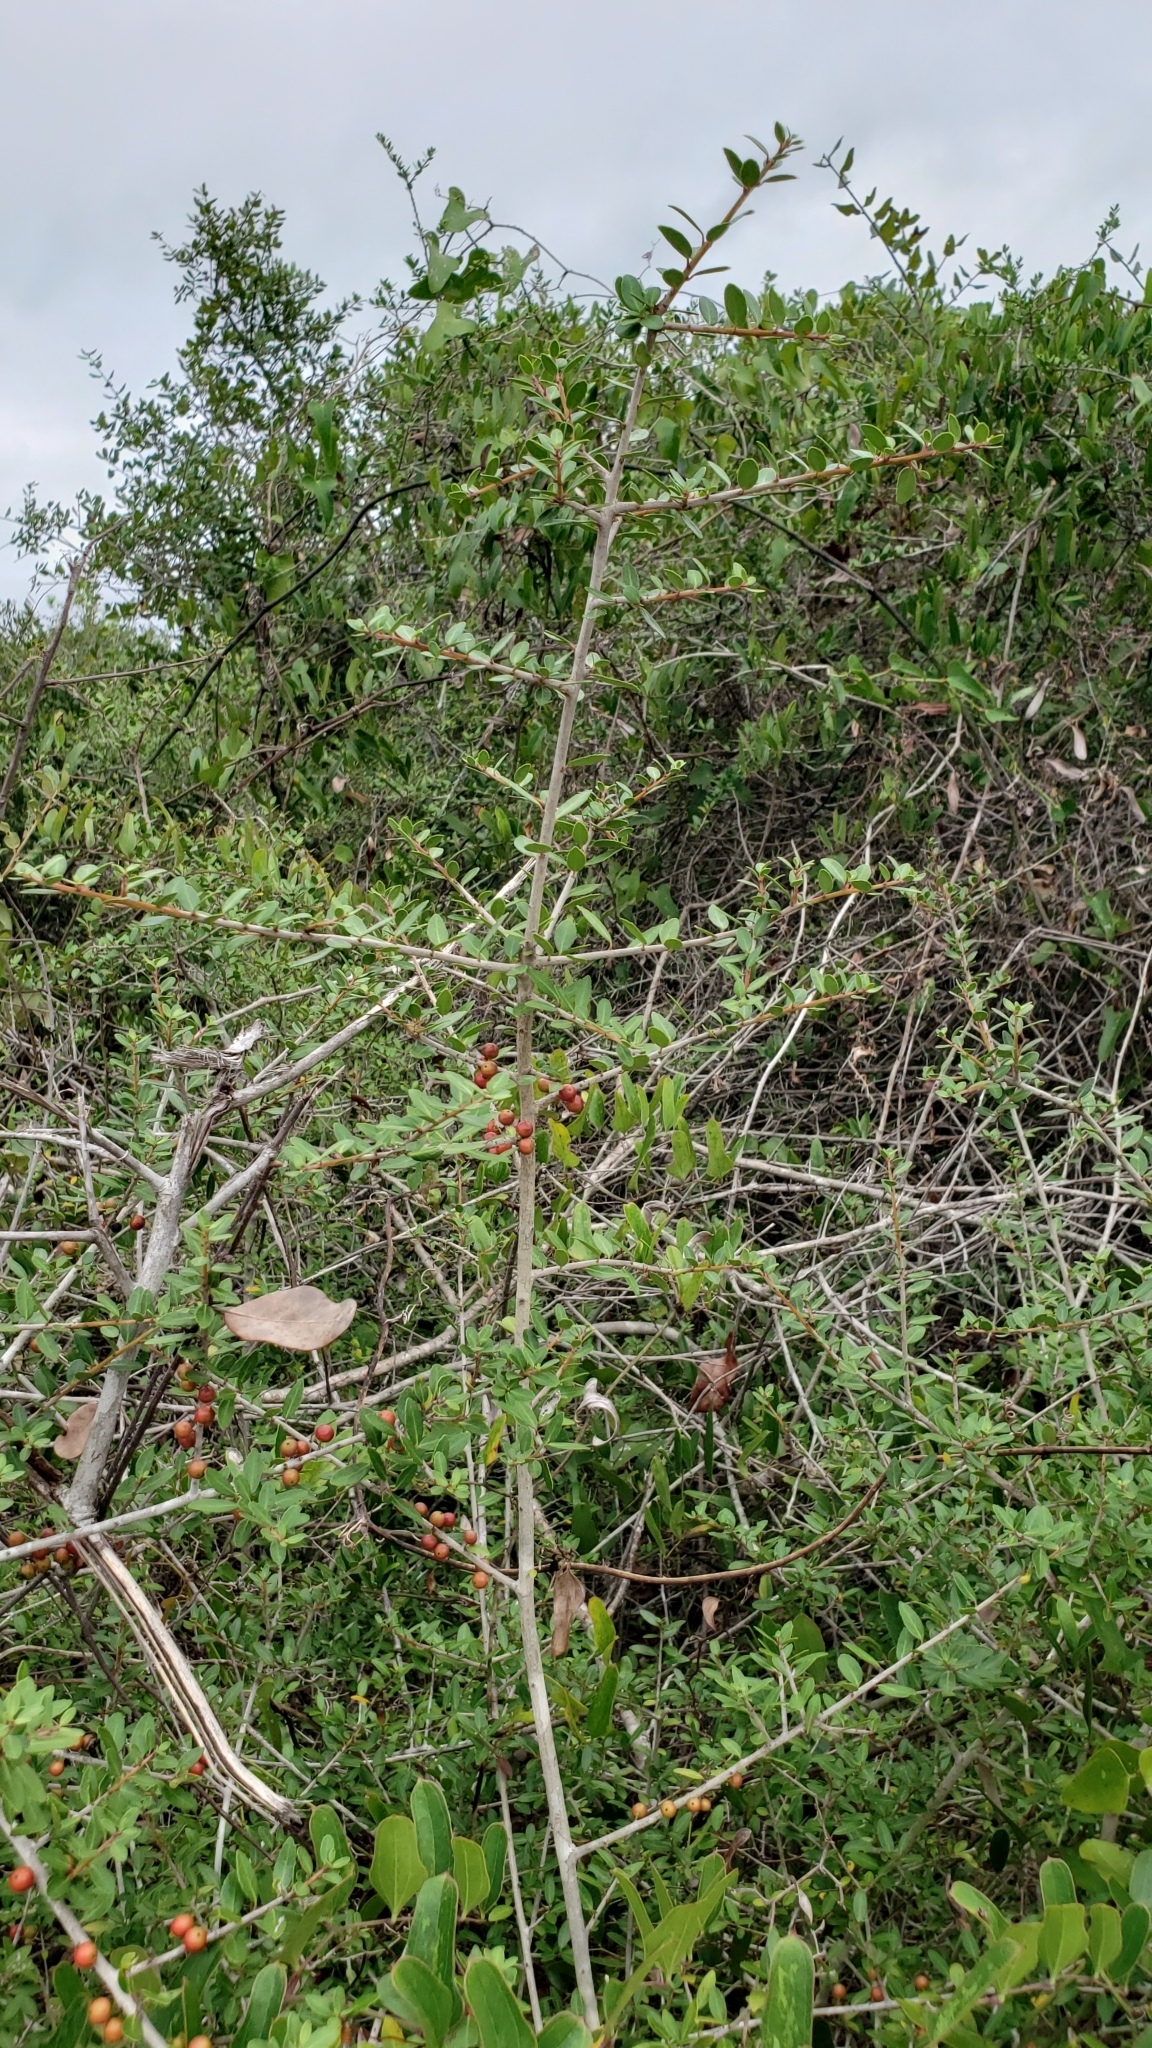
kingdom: Plantae
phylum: Tracheophyta
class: Magnoliopsida
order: Aquifoliales
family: Aquifoliaceae
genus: Ilex
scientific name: Ilex vomitoria
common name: Yaupon holly
